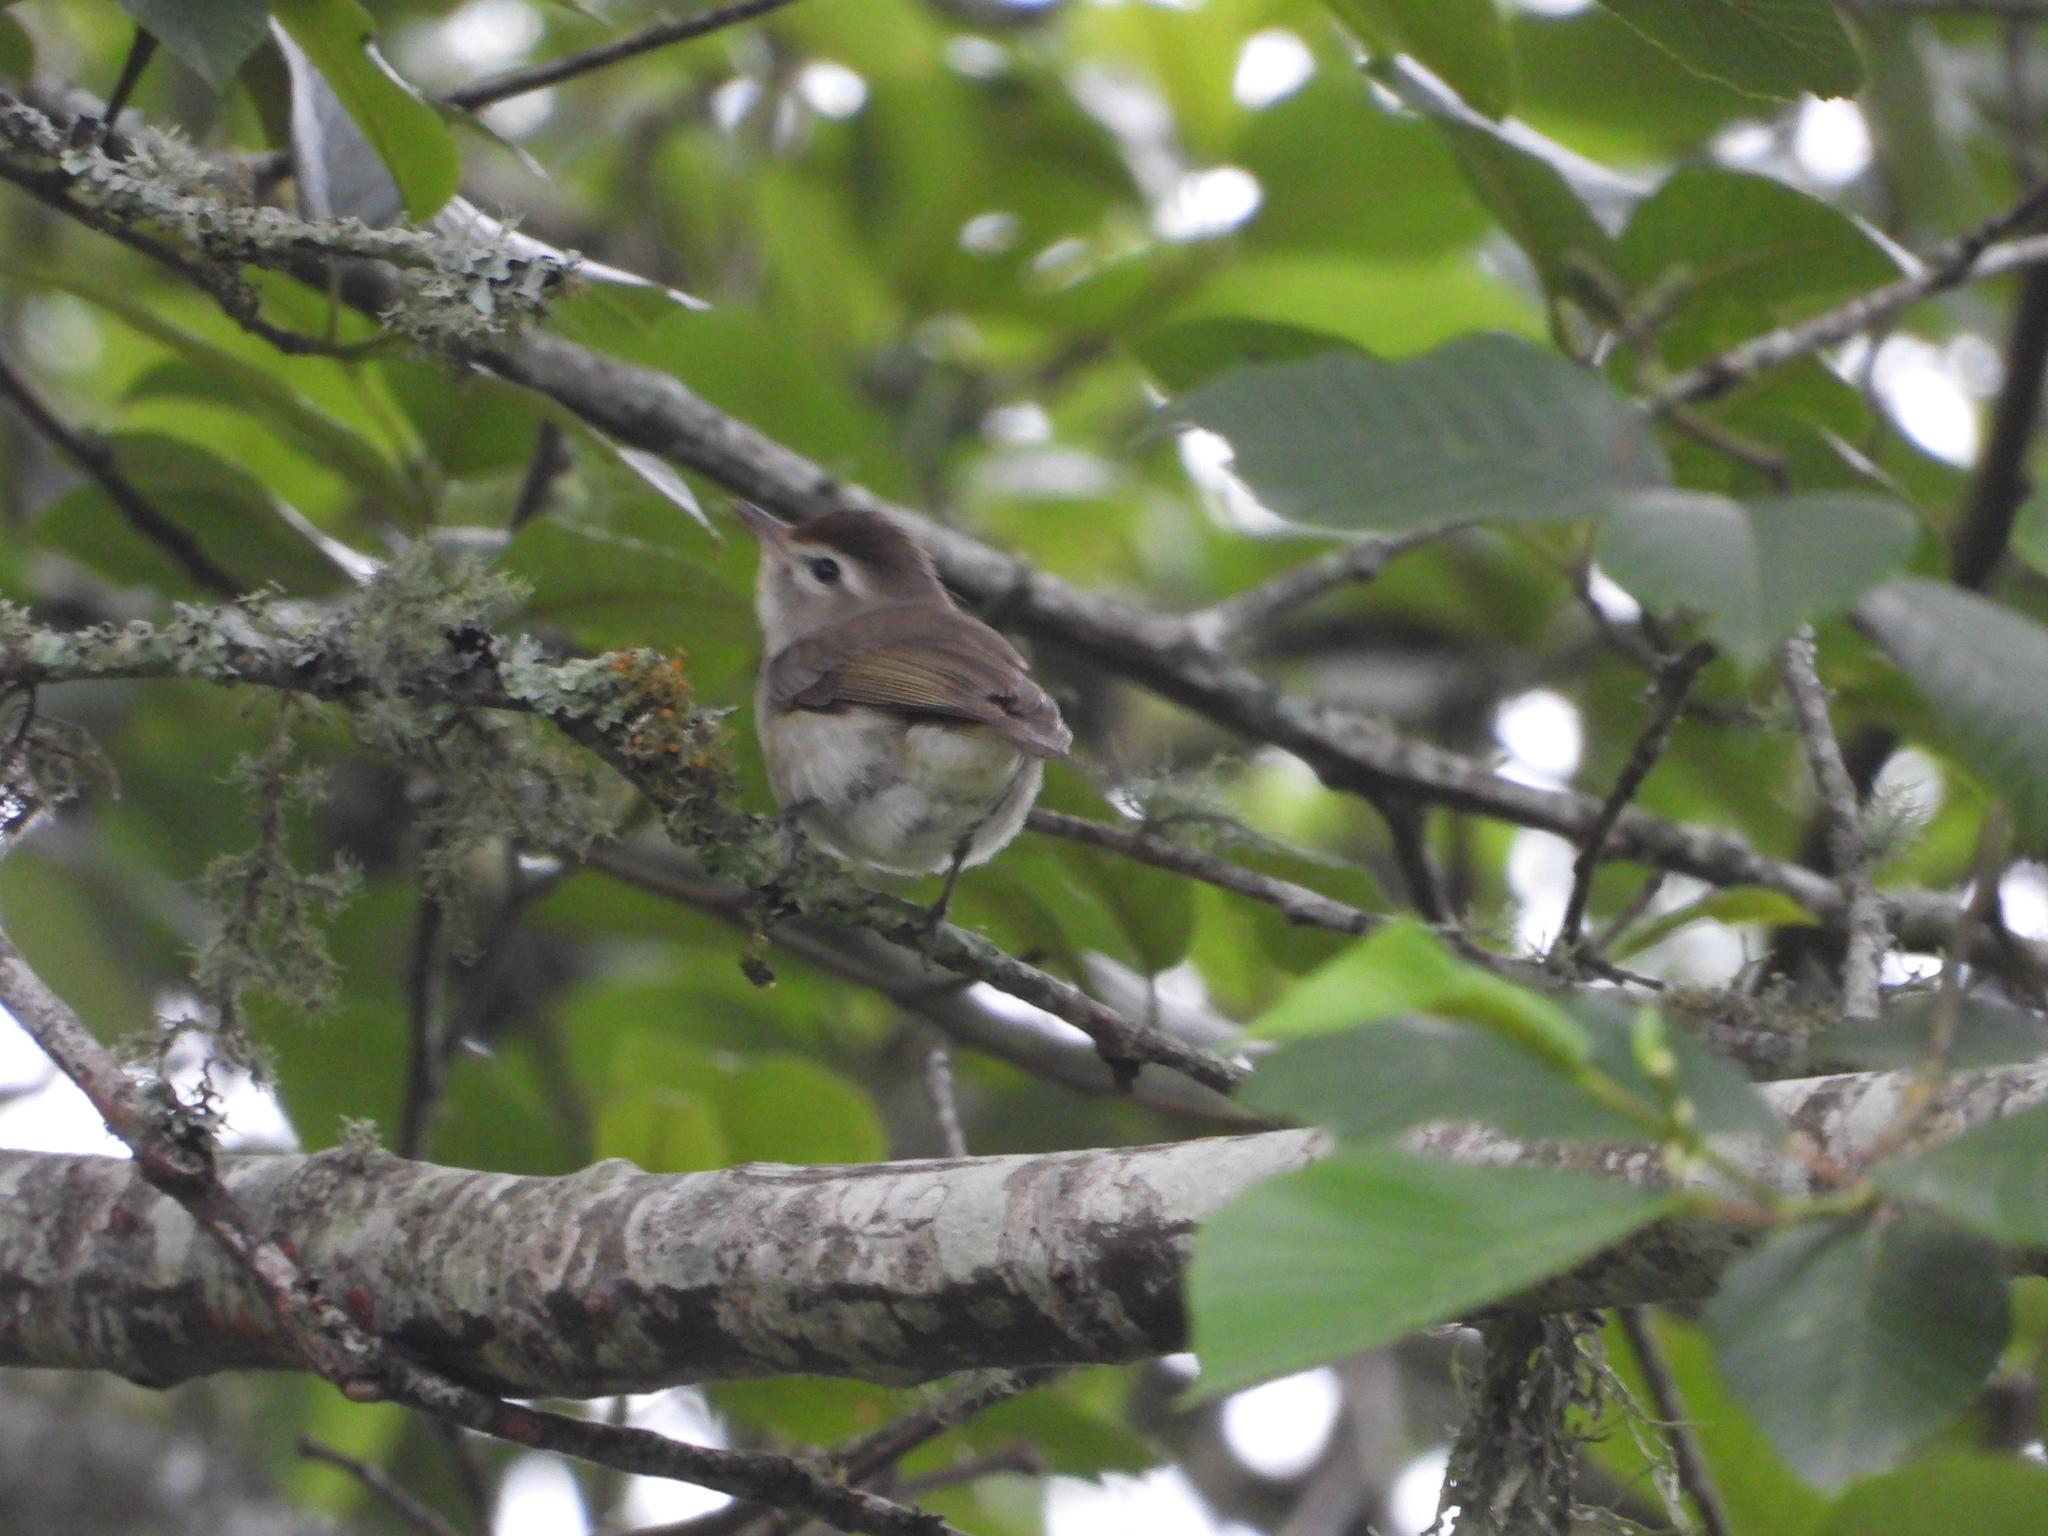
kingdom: Animalia
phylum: Chordata
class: Aves
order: Passeriformes
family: Vireonidae
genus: Vireo
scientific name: Vireo leucophrys
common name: Brown-capped vireo
